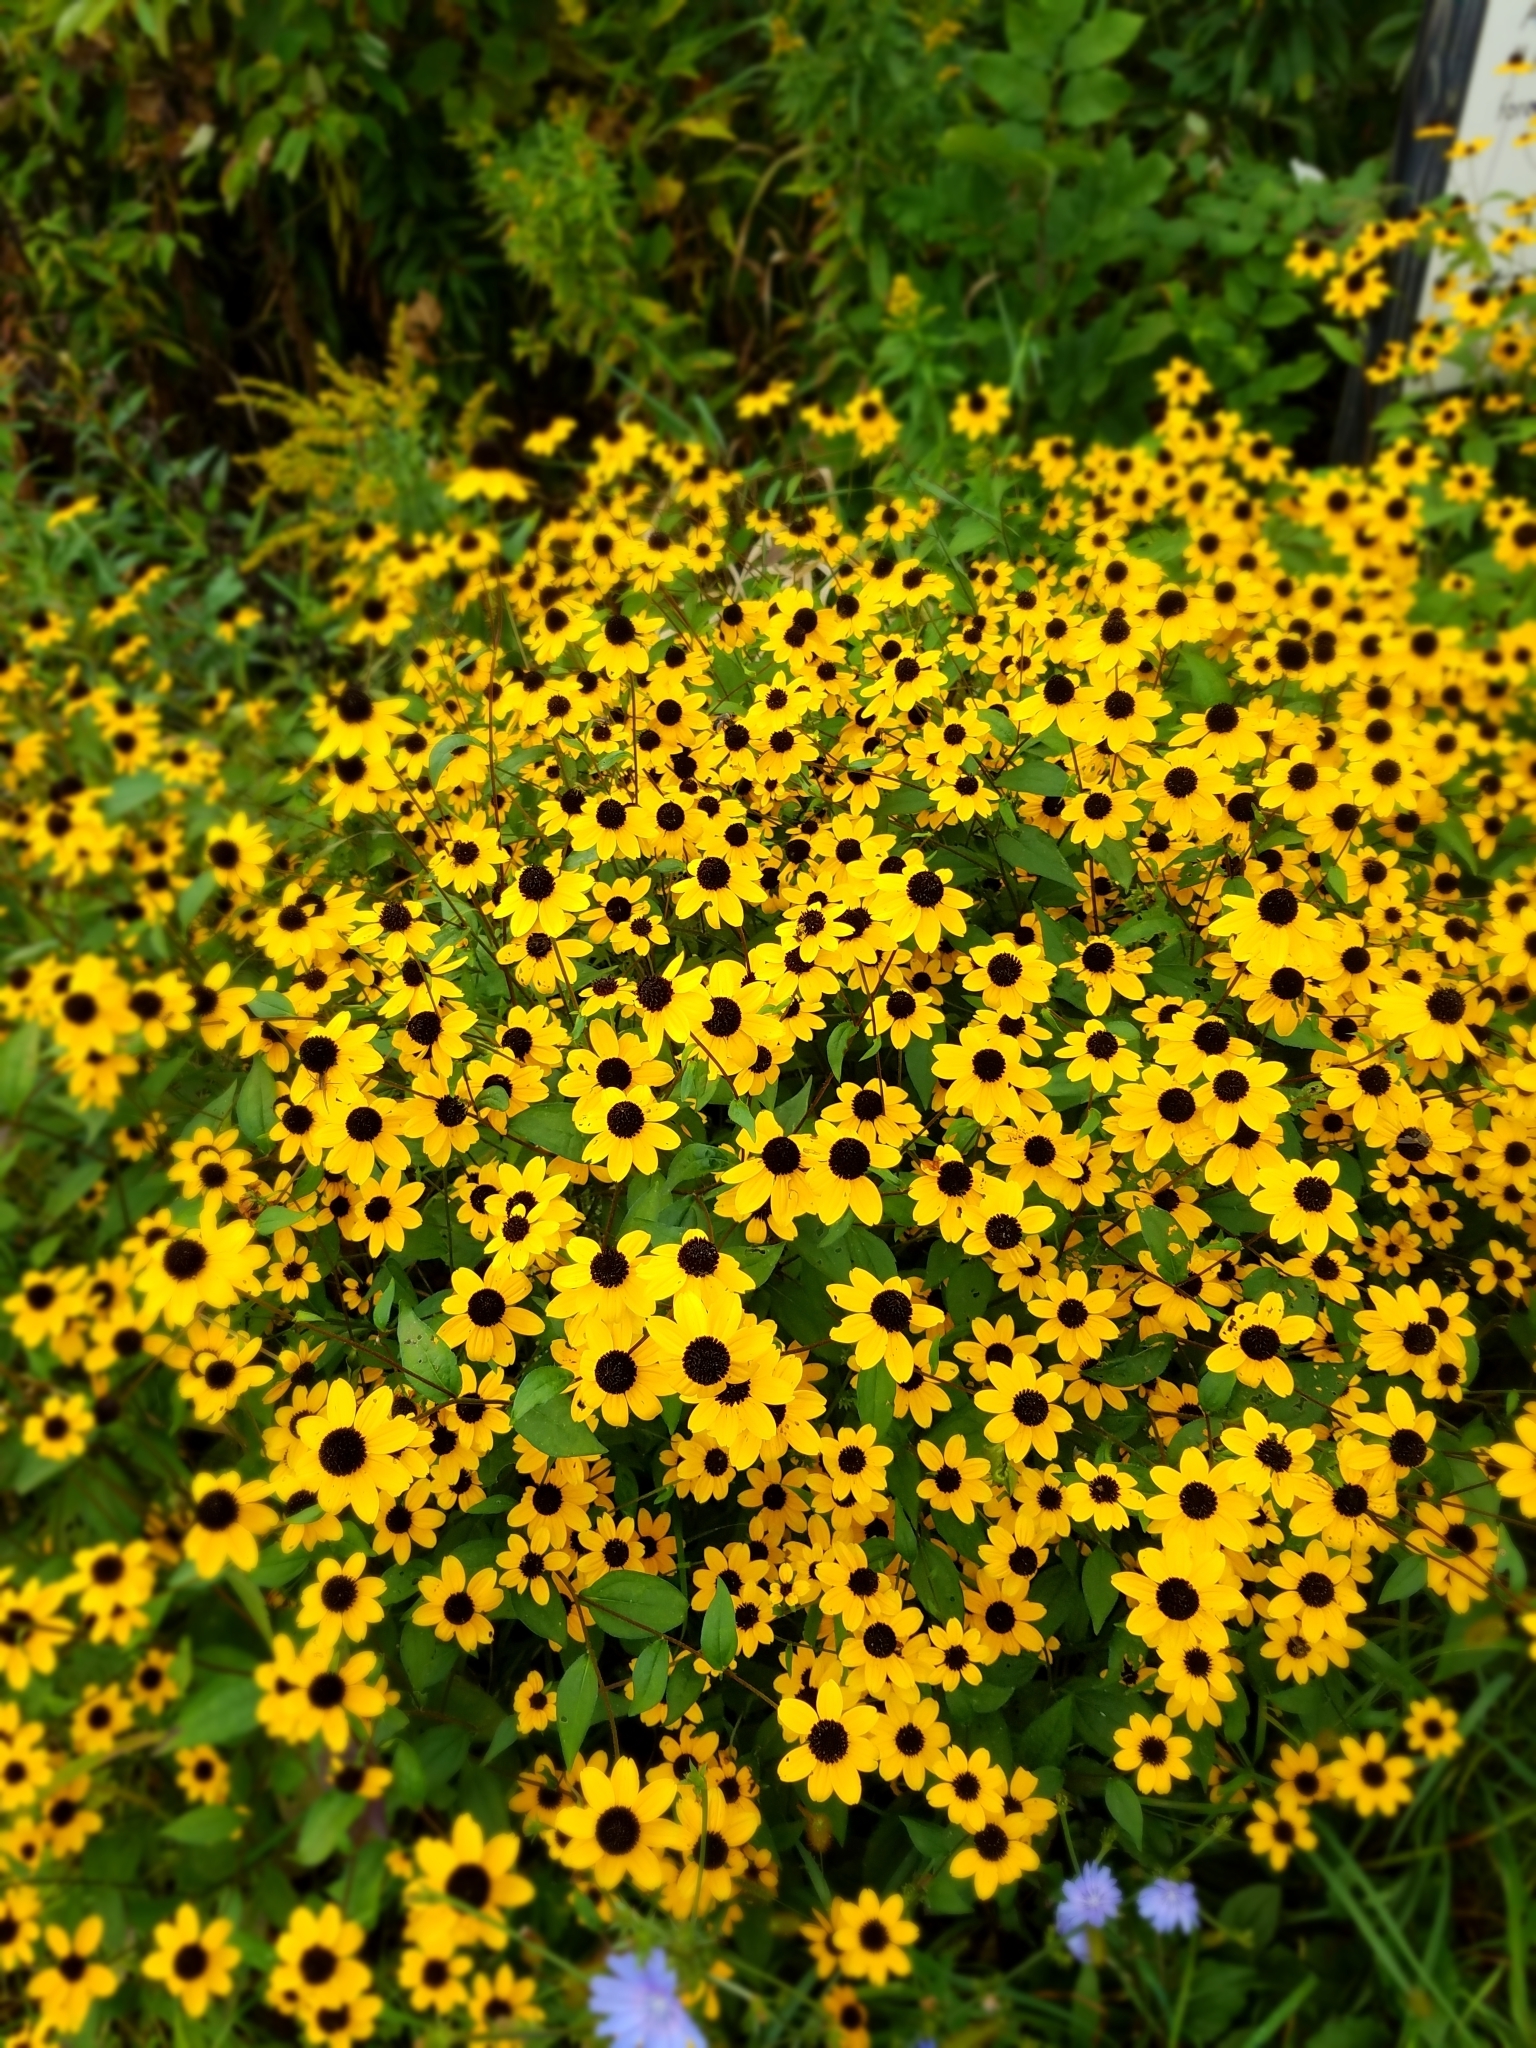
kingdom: Plantae
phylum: Tracheophyta
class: Magnoliopsida
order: Asterales
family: Asteraceae
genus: Rudbeckia
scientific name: Rudbeckia triloba
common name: Thin-leaved coneflower
